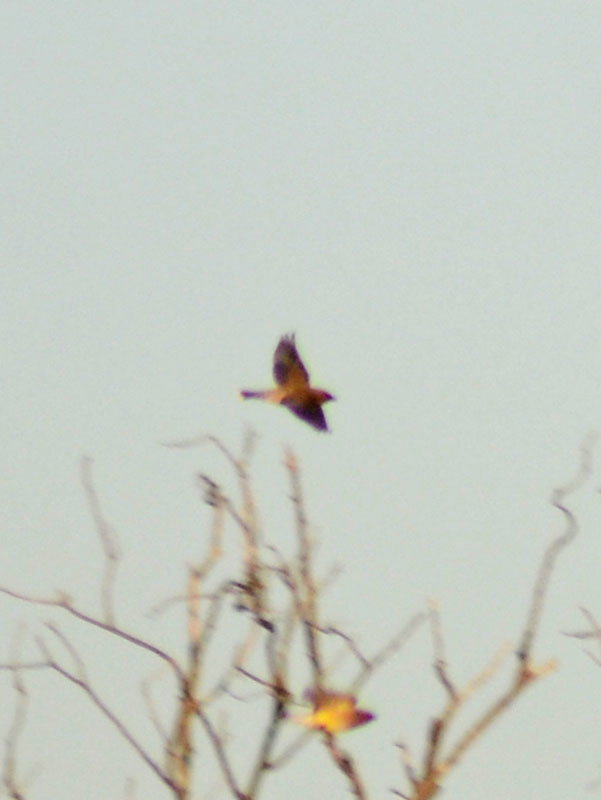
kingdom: Animalia
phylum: Chordata
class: Aves
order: Passeriformes
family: Bombycillidae
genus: Bombycilla
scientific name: Bombycilla cedrorum
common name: Cedar waxwing
